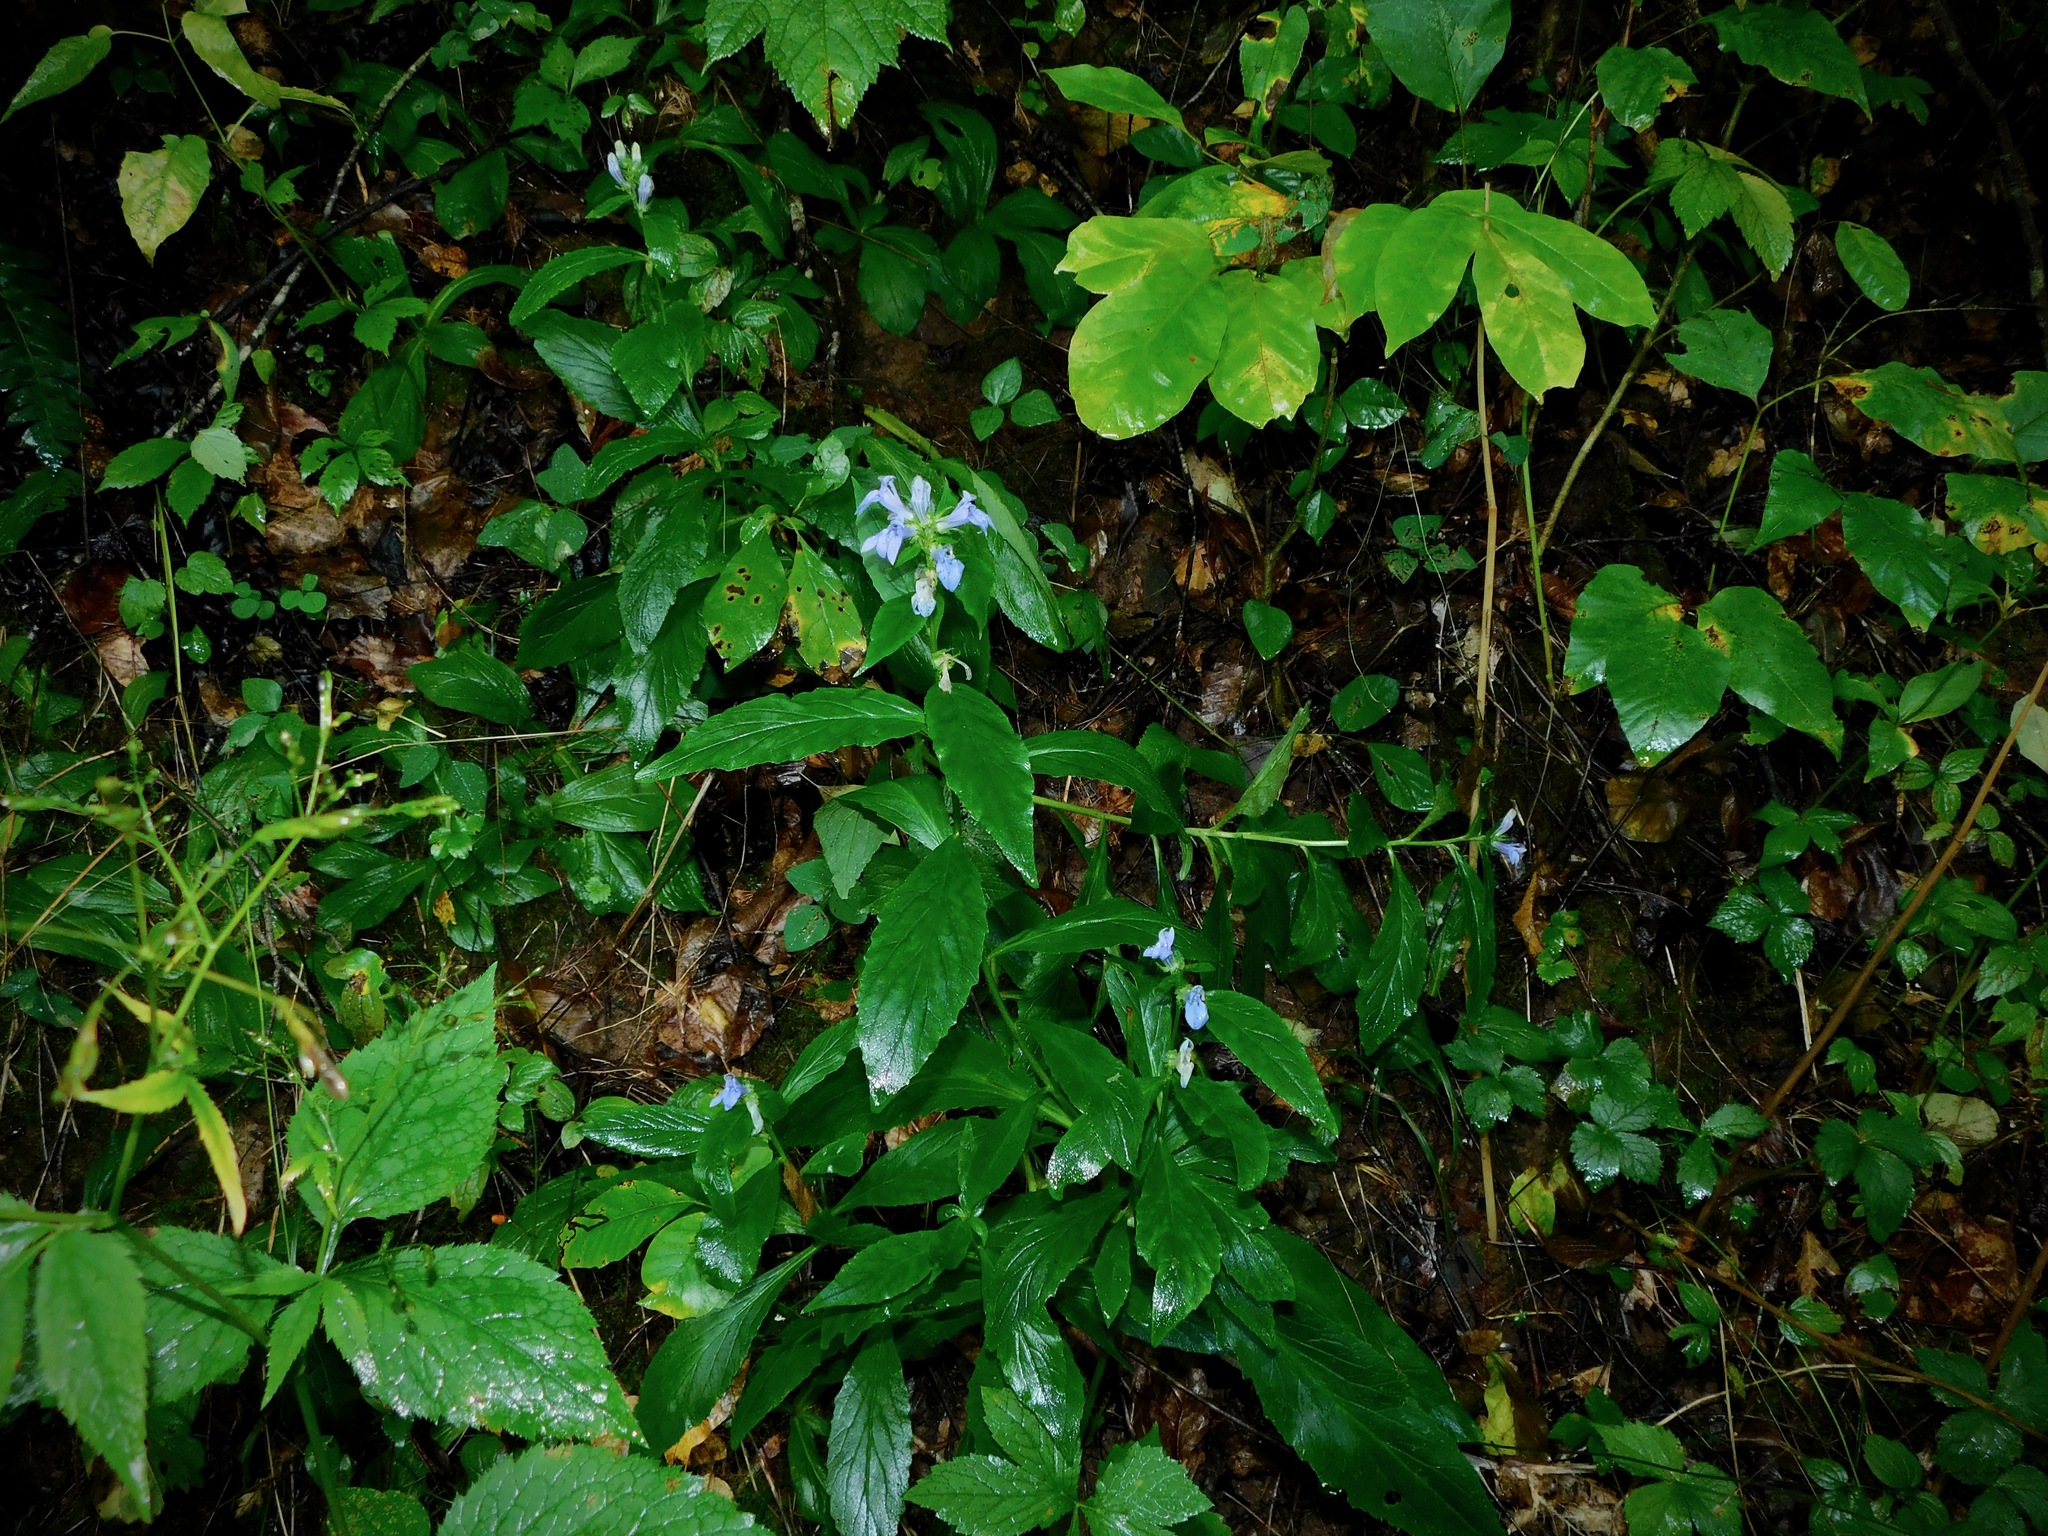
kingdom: Plantae
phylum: Tracheophyta
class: Magnoliopsida
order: Asterales
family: Campanulaceae
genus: Lobelia
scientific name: Lobelia siphilitica
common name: Great lobelia
